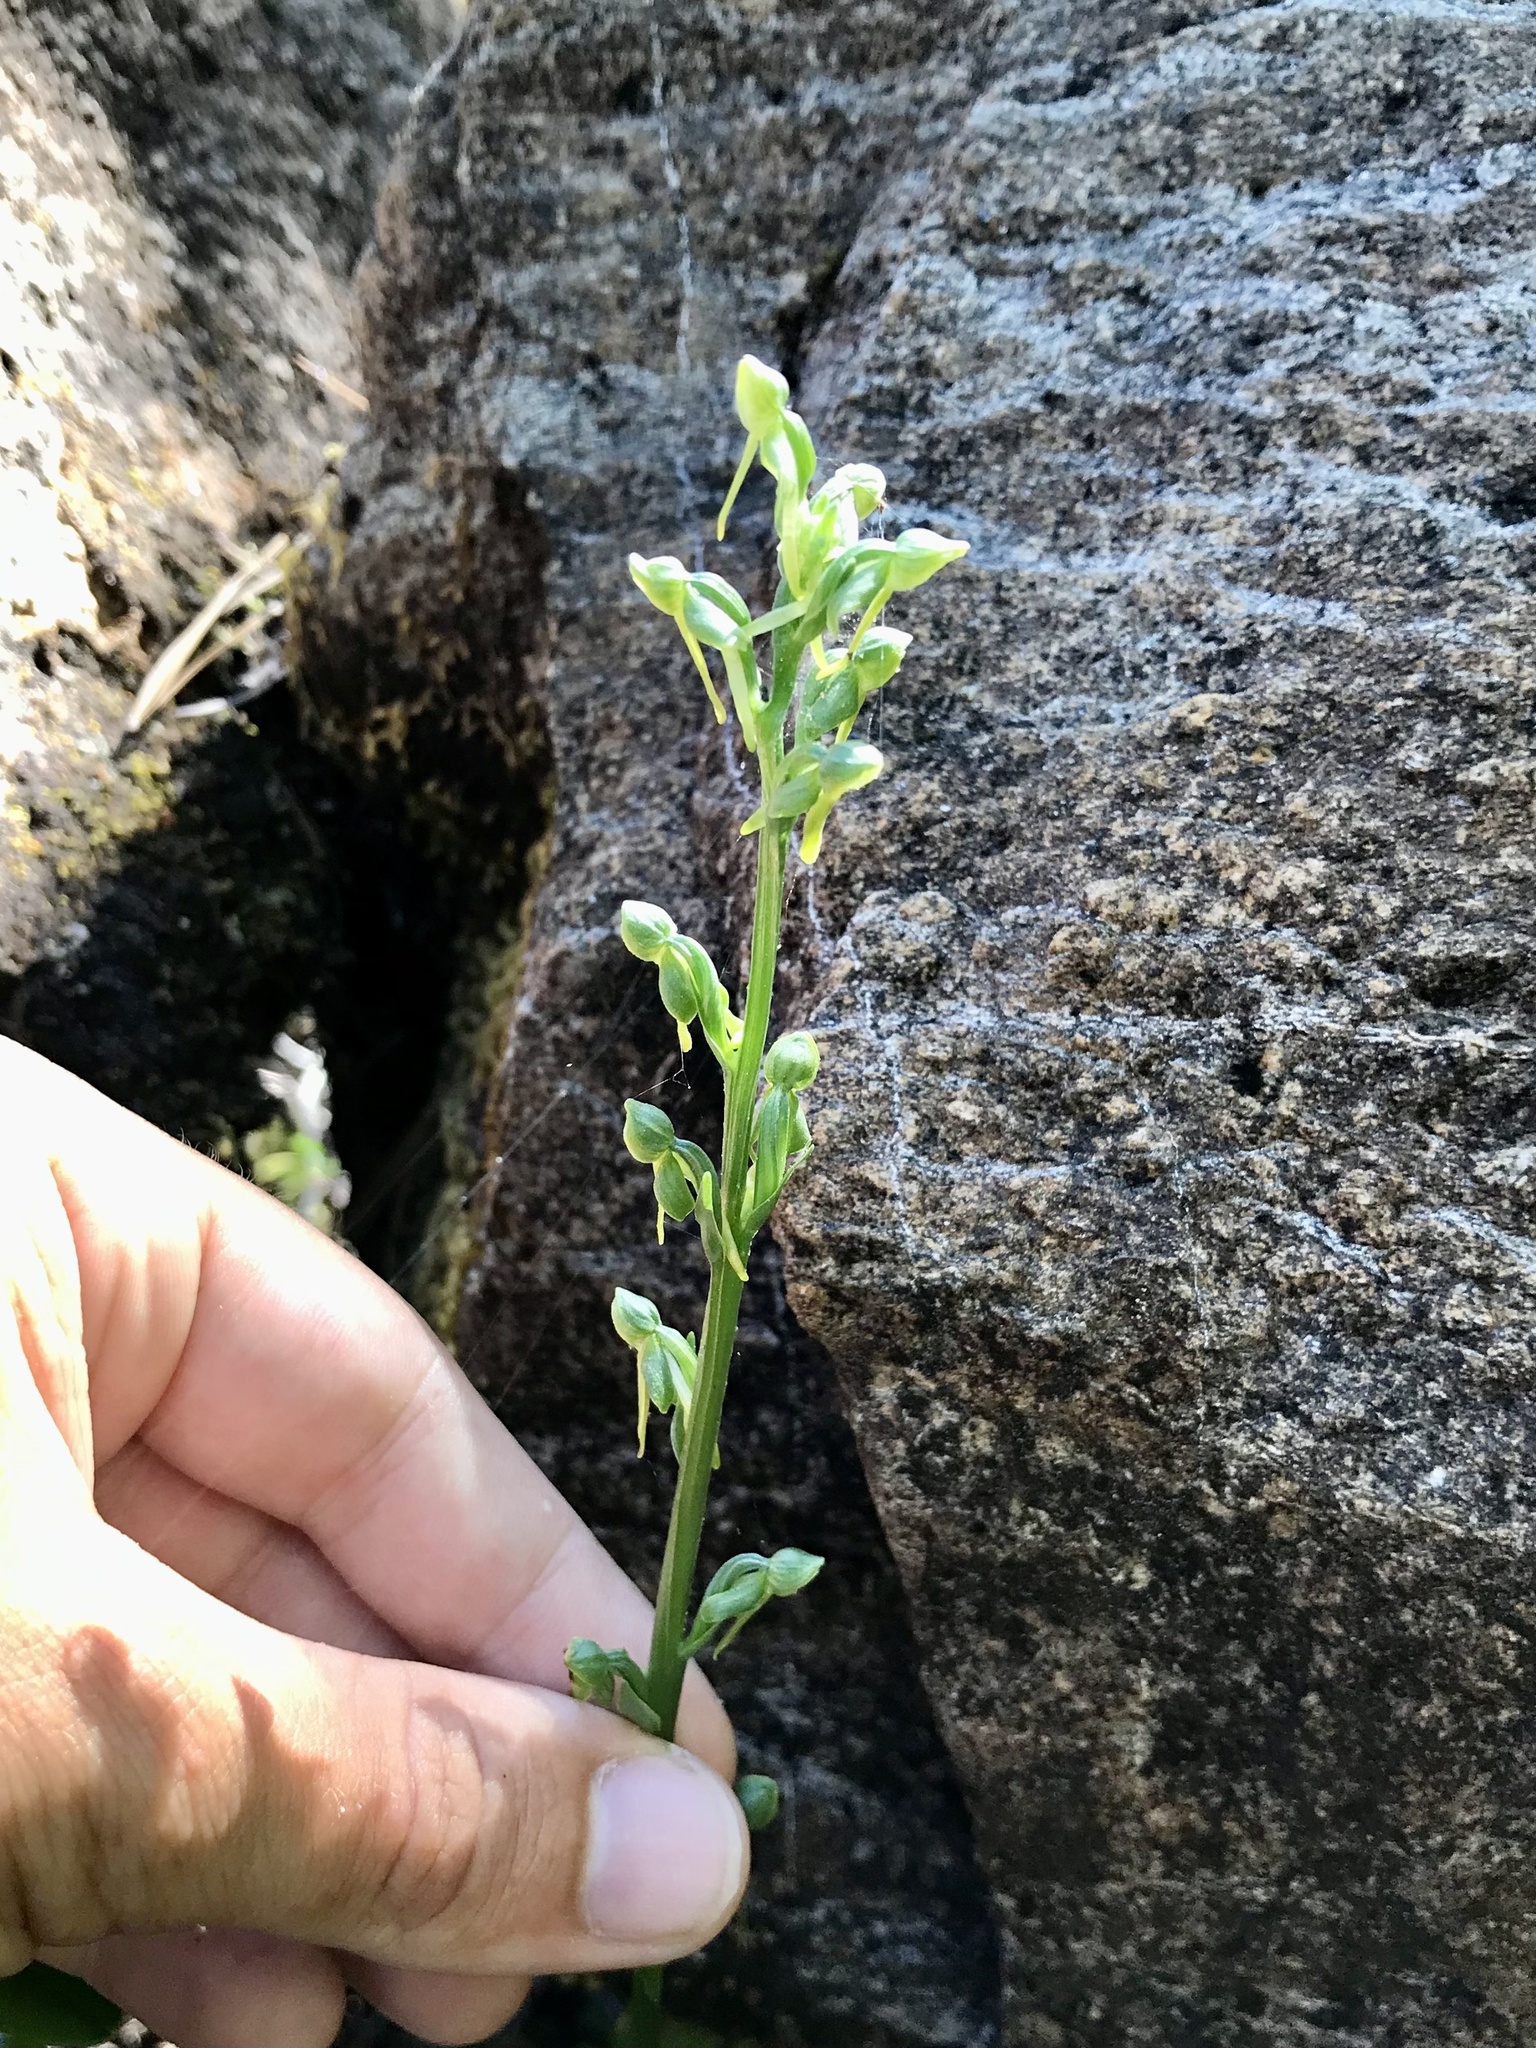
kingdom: Plantae
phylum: Tracheophyta
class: Liliopsida
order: Asparagales
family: Orchidaceae
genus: Platanthera
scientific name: Platanthera sparsiflora
